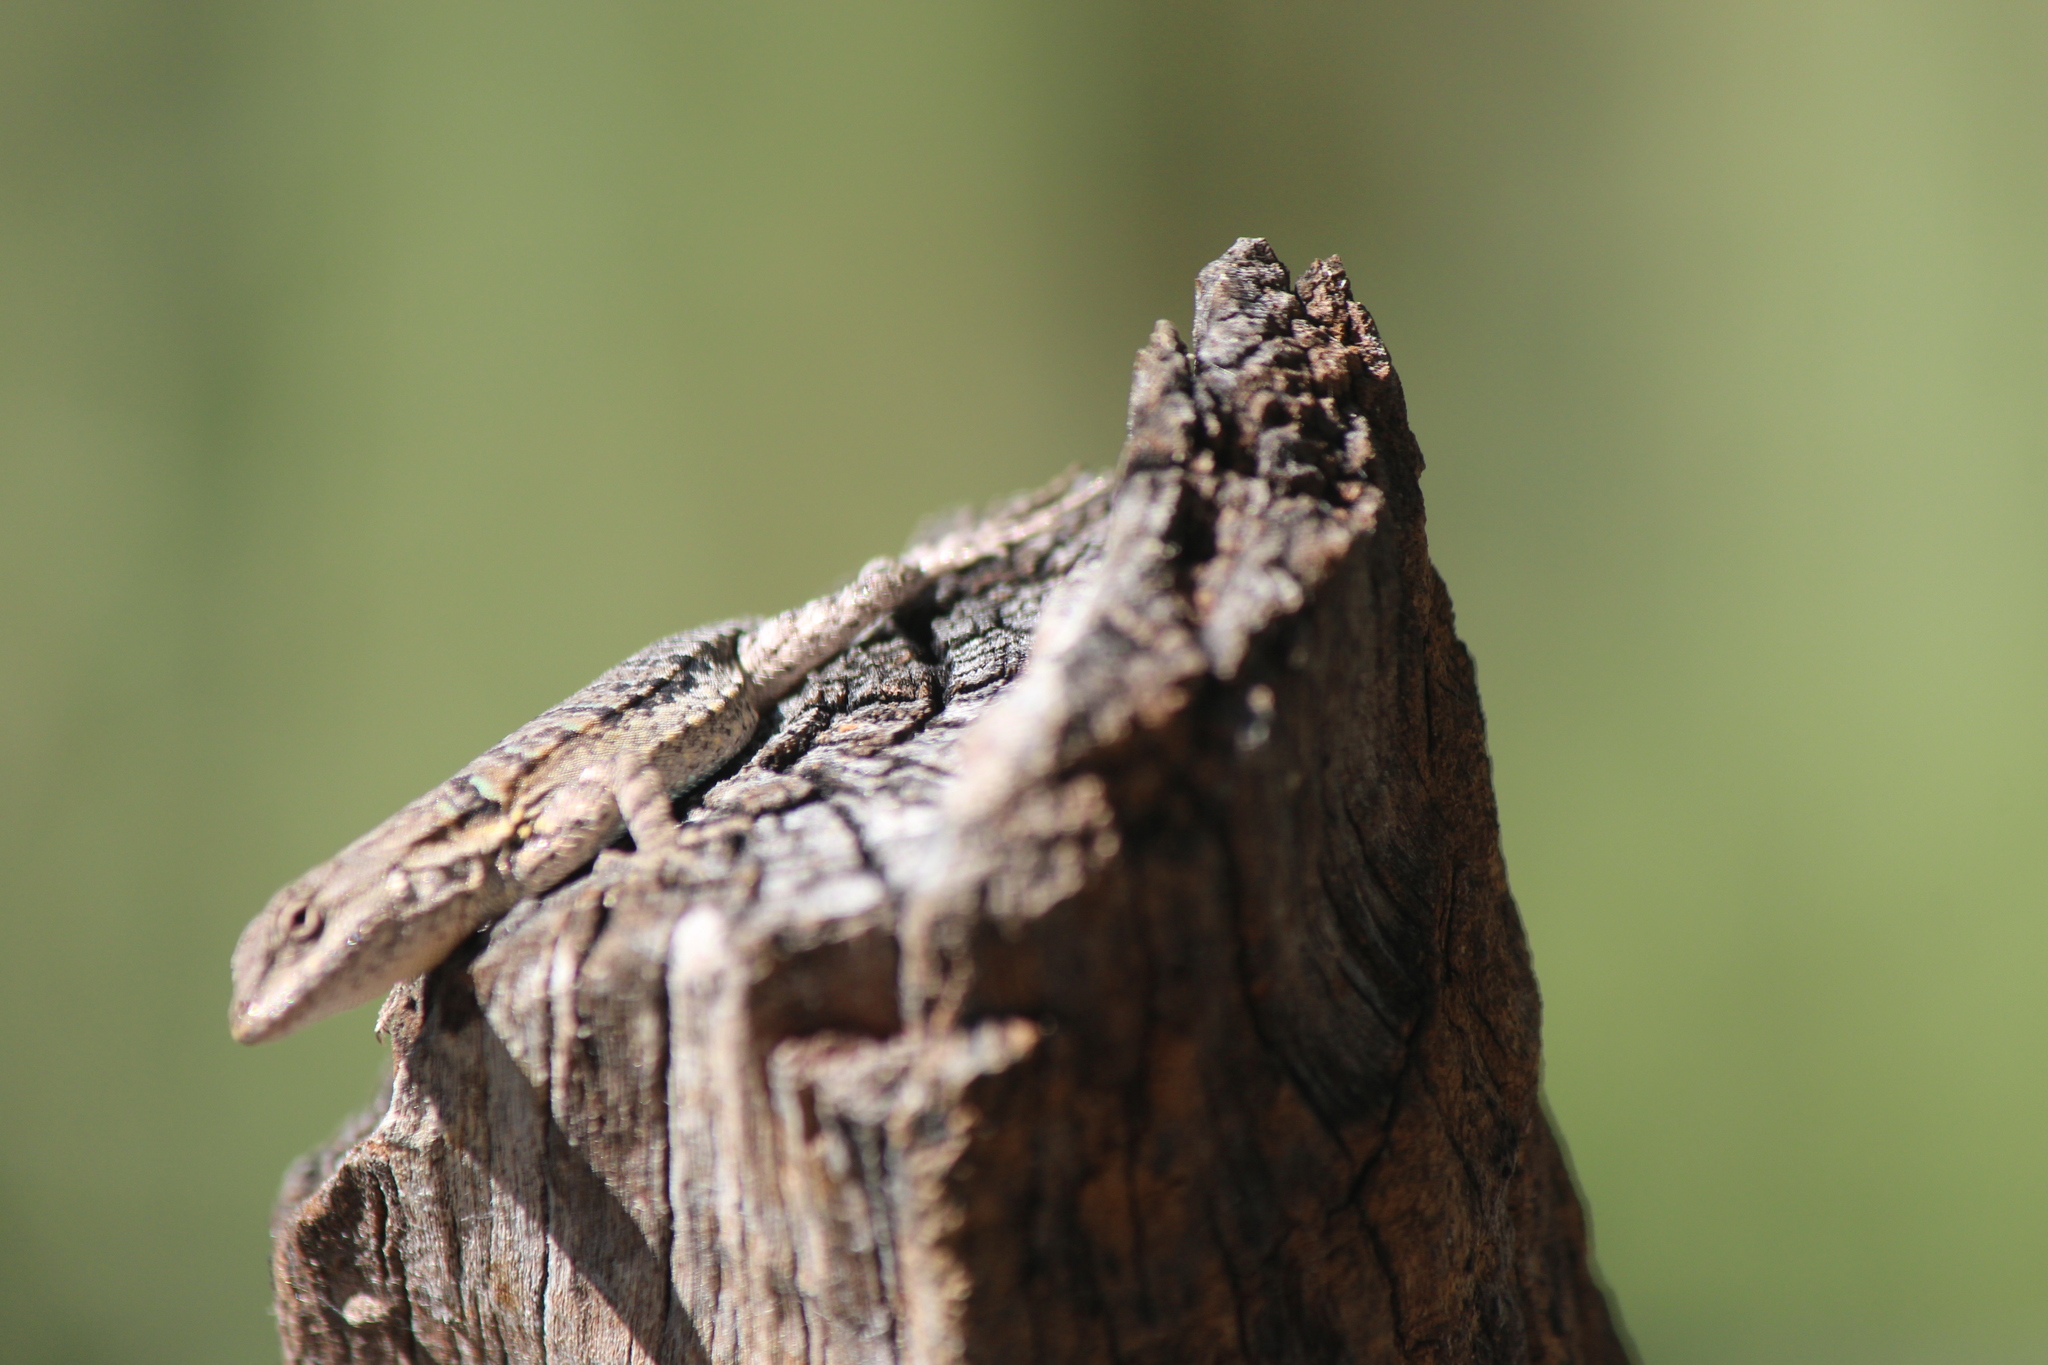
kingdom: Animalia
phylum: Chordata
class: Squamata
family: Phrynosomatidae
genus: Urosaurus
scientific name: Urosaurus nigricauda
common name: Baja california brush lizard
